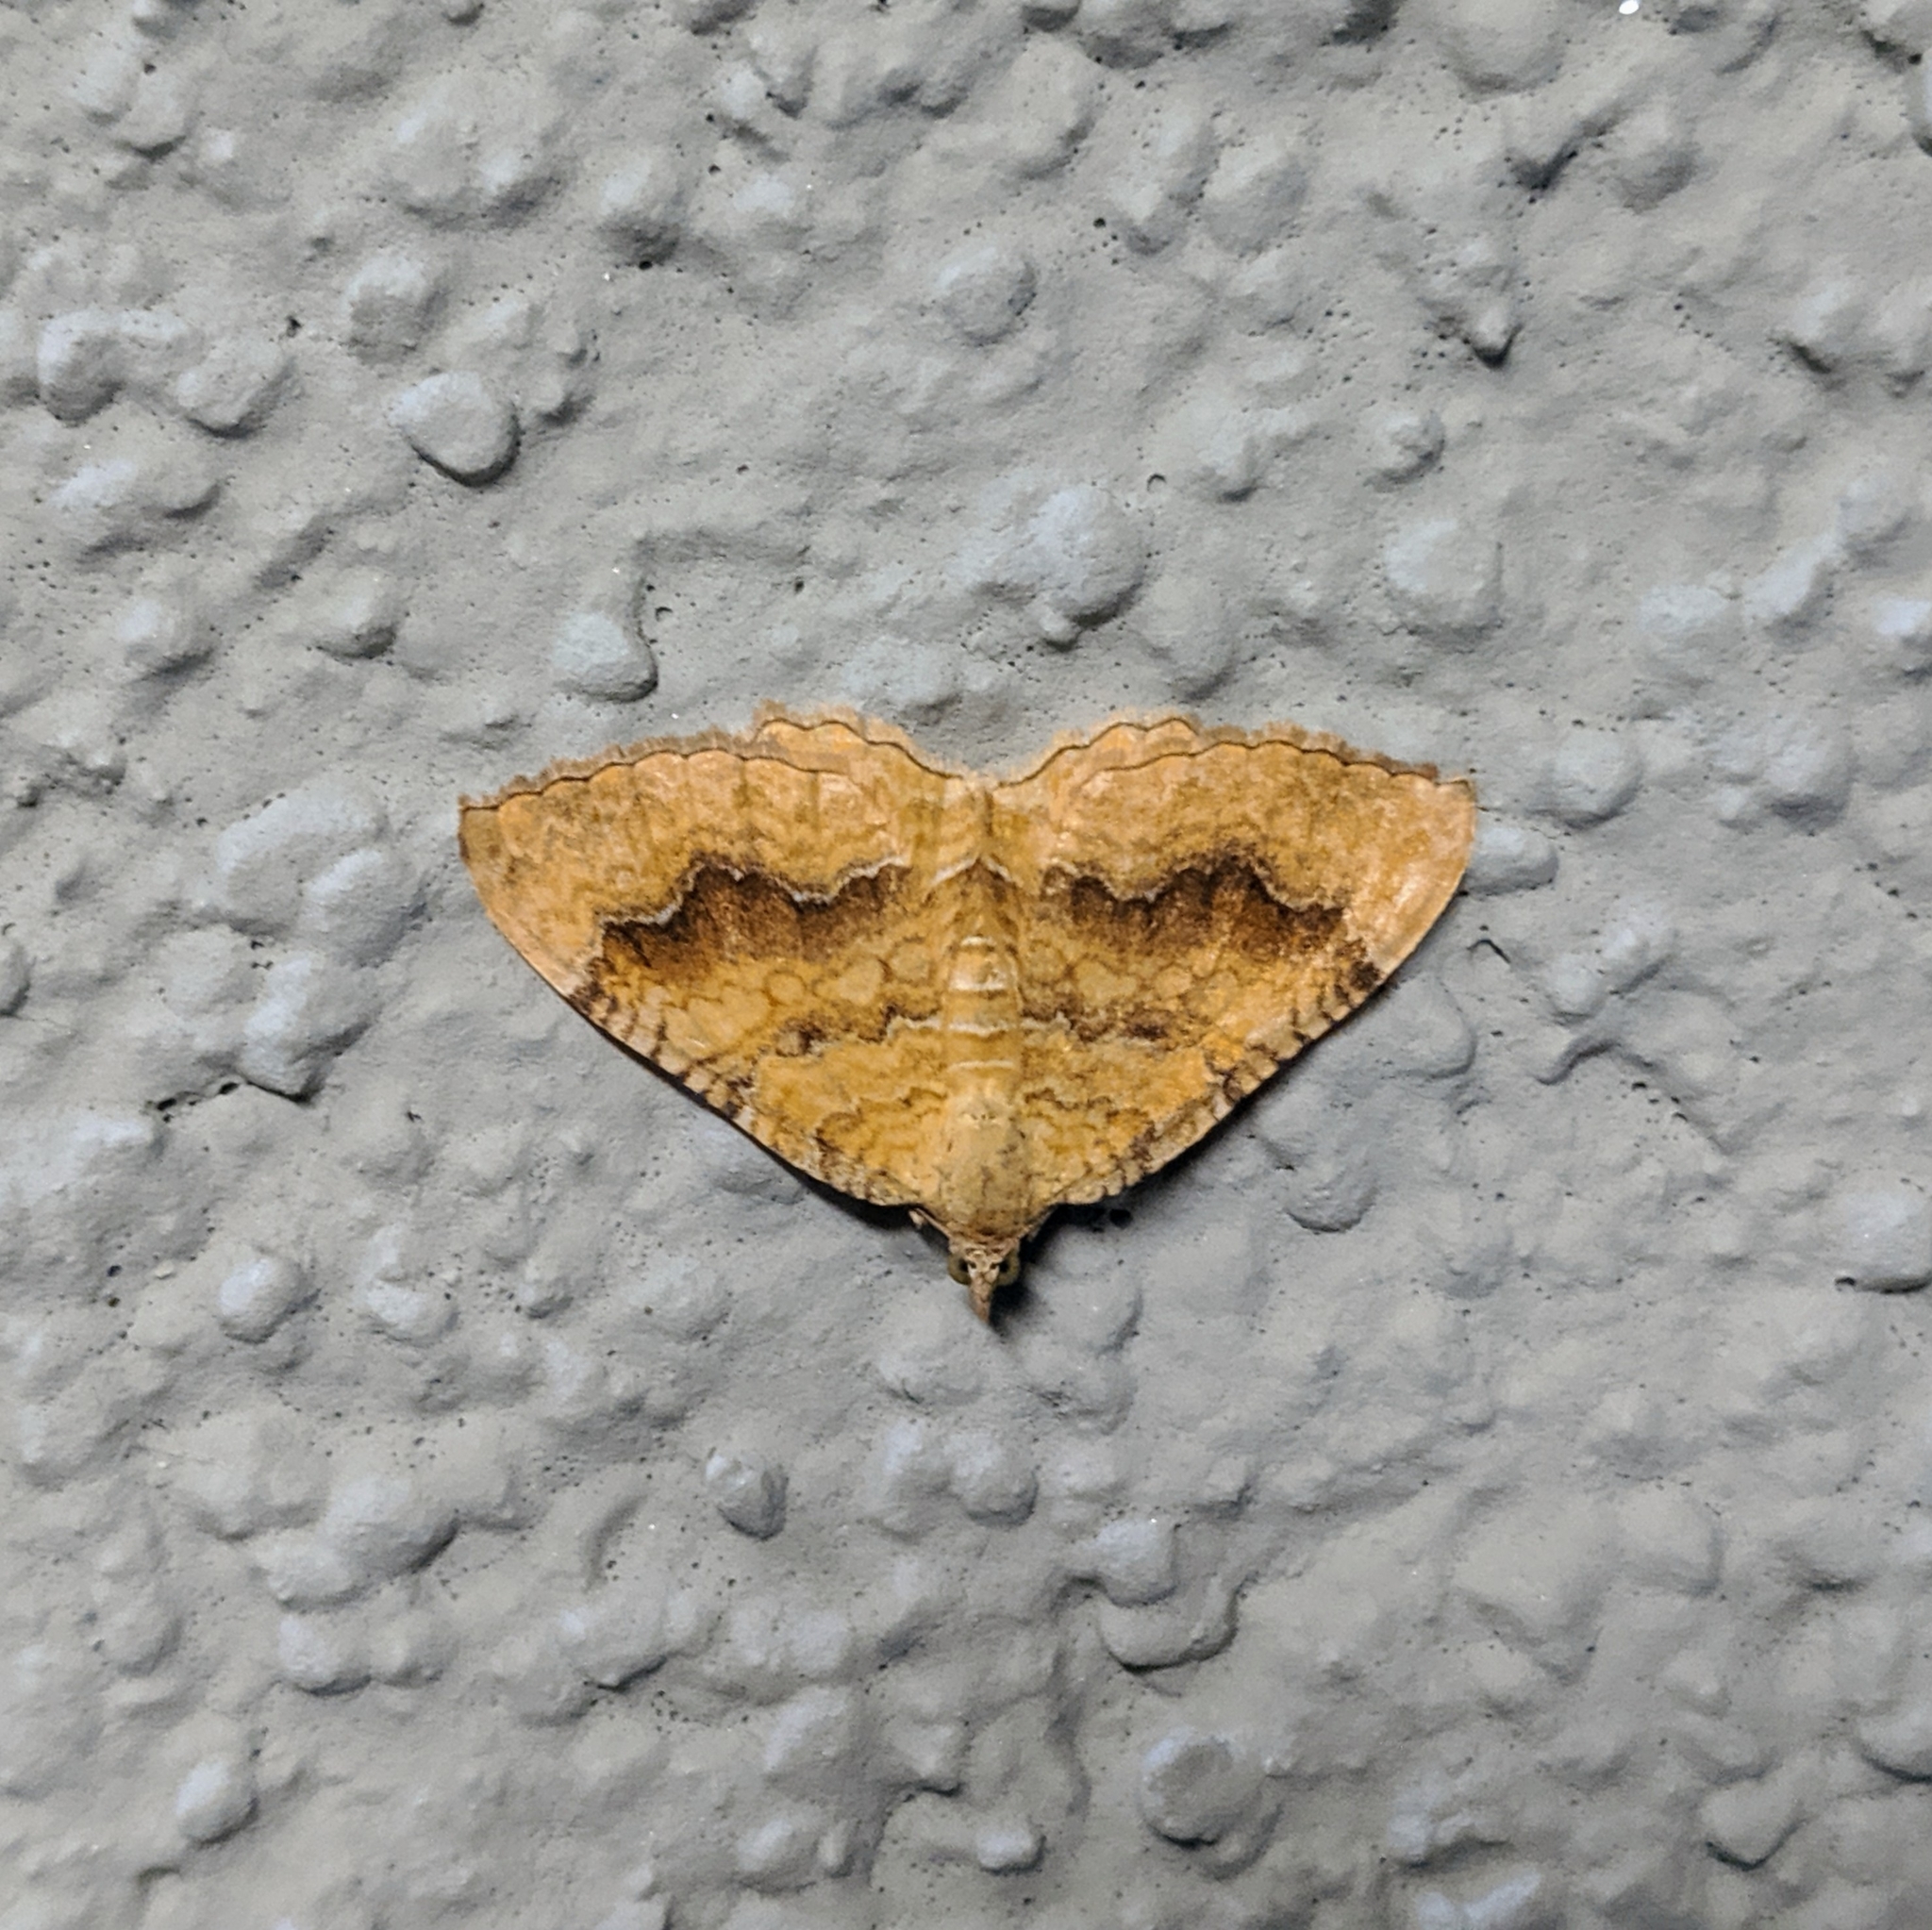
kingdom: Animalia
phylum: Arthropoda
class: Insecta
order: Lepidoptera
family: Geometridae
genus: Camptogramma
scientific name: Camptogramma bilineata
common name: Yellow shell
